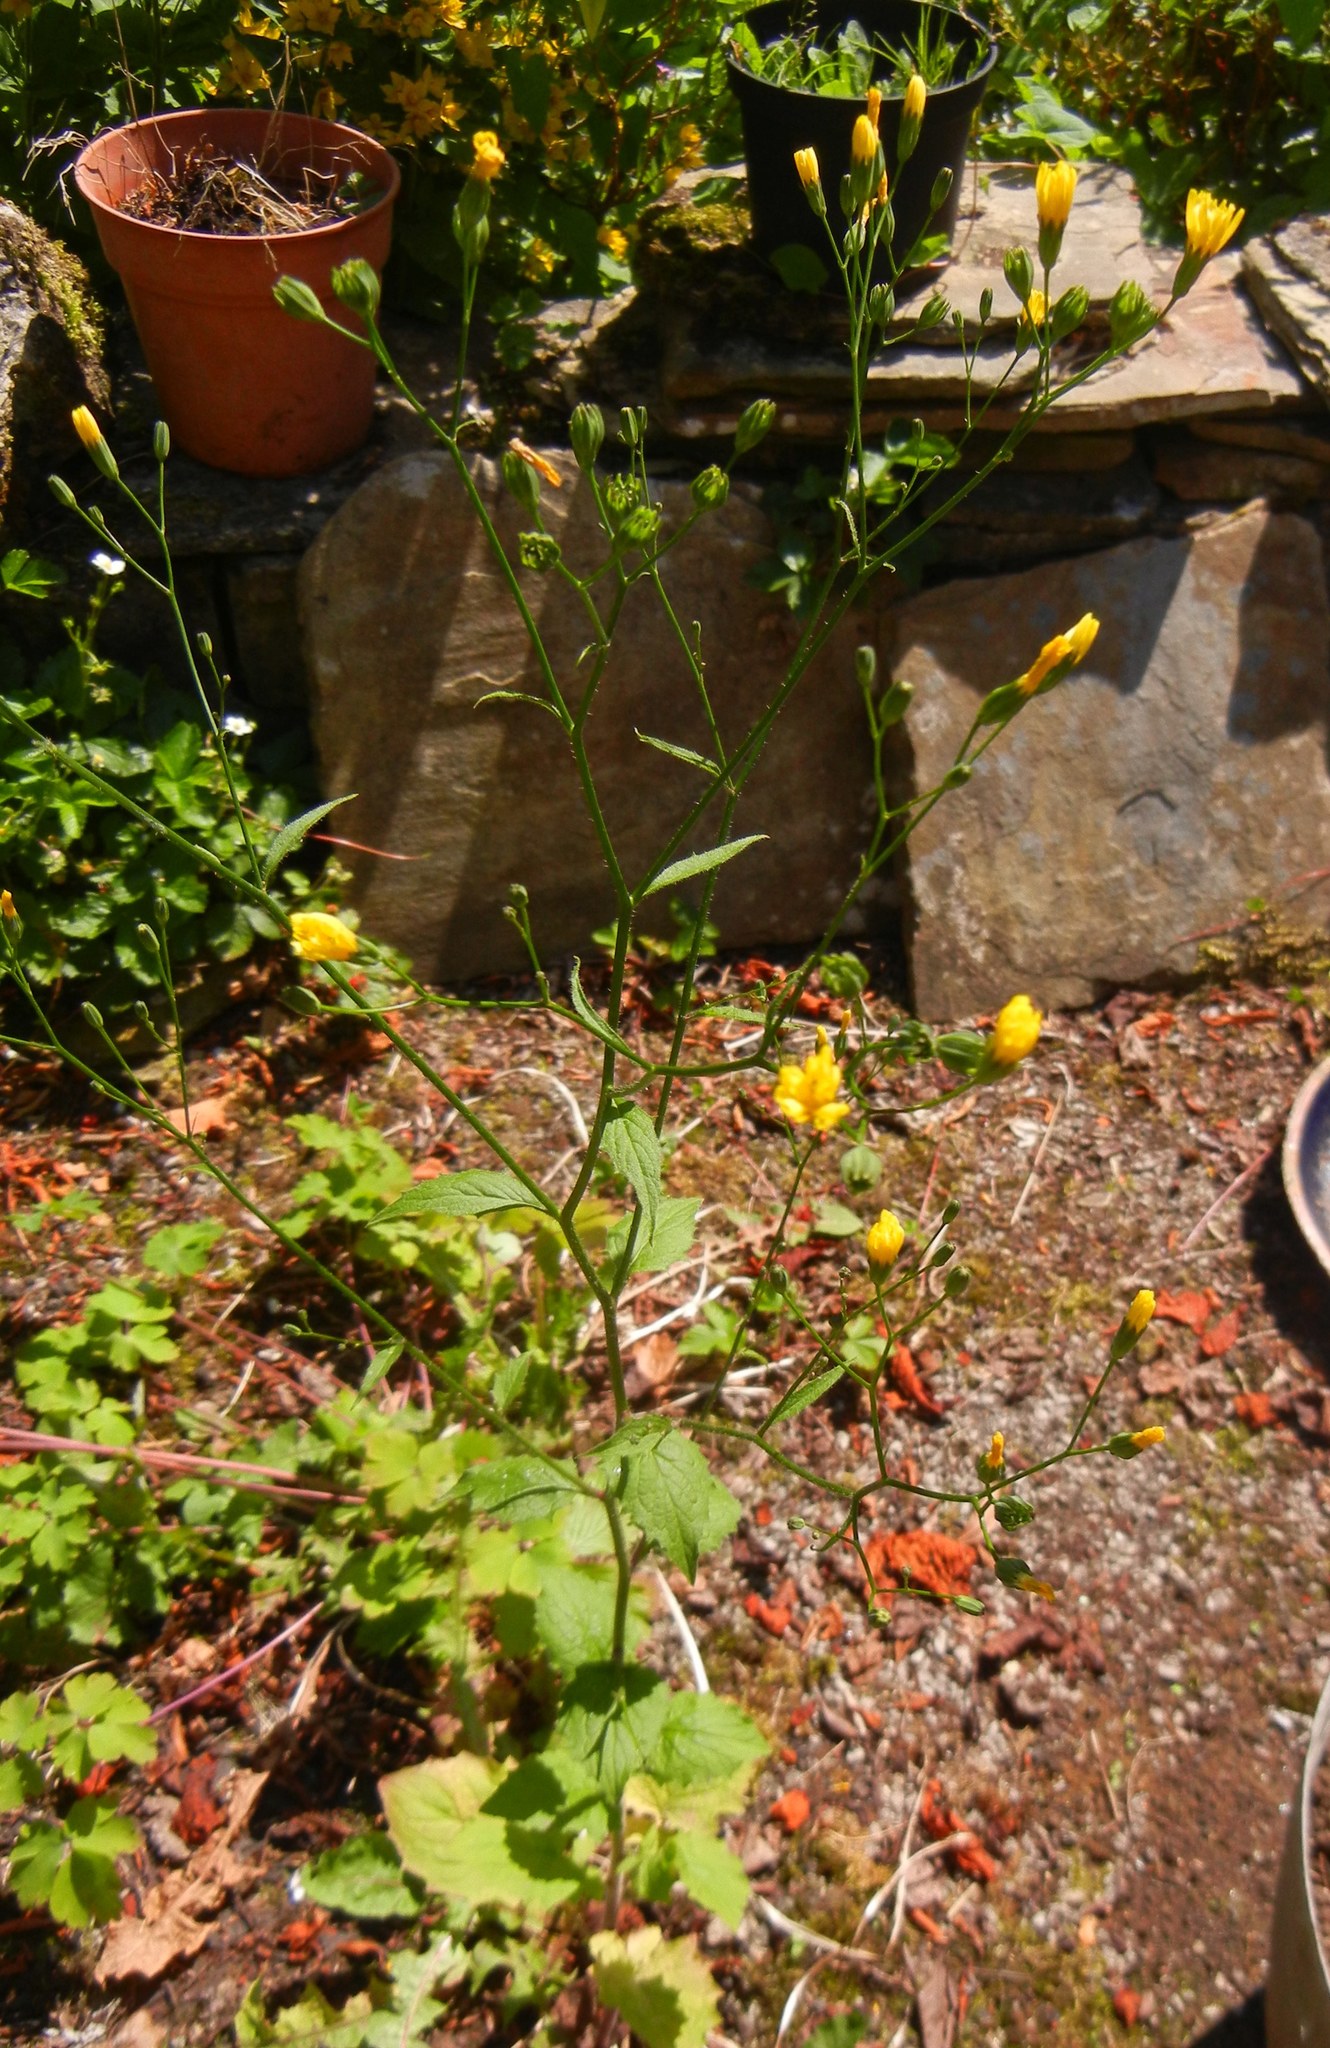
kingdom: Plantae
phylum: Tracheophyta
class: Magnoliopsida
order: Asterales
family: Asteraceae
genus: Lapsana
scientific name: Lapsana communis
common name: Nipplewort
